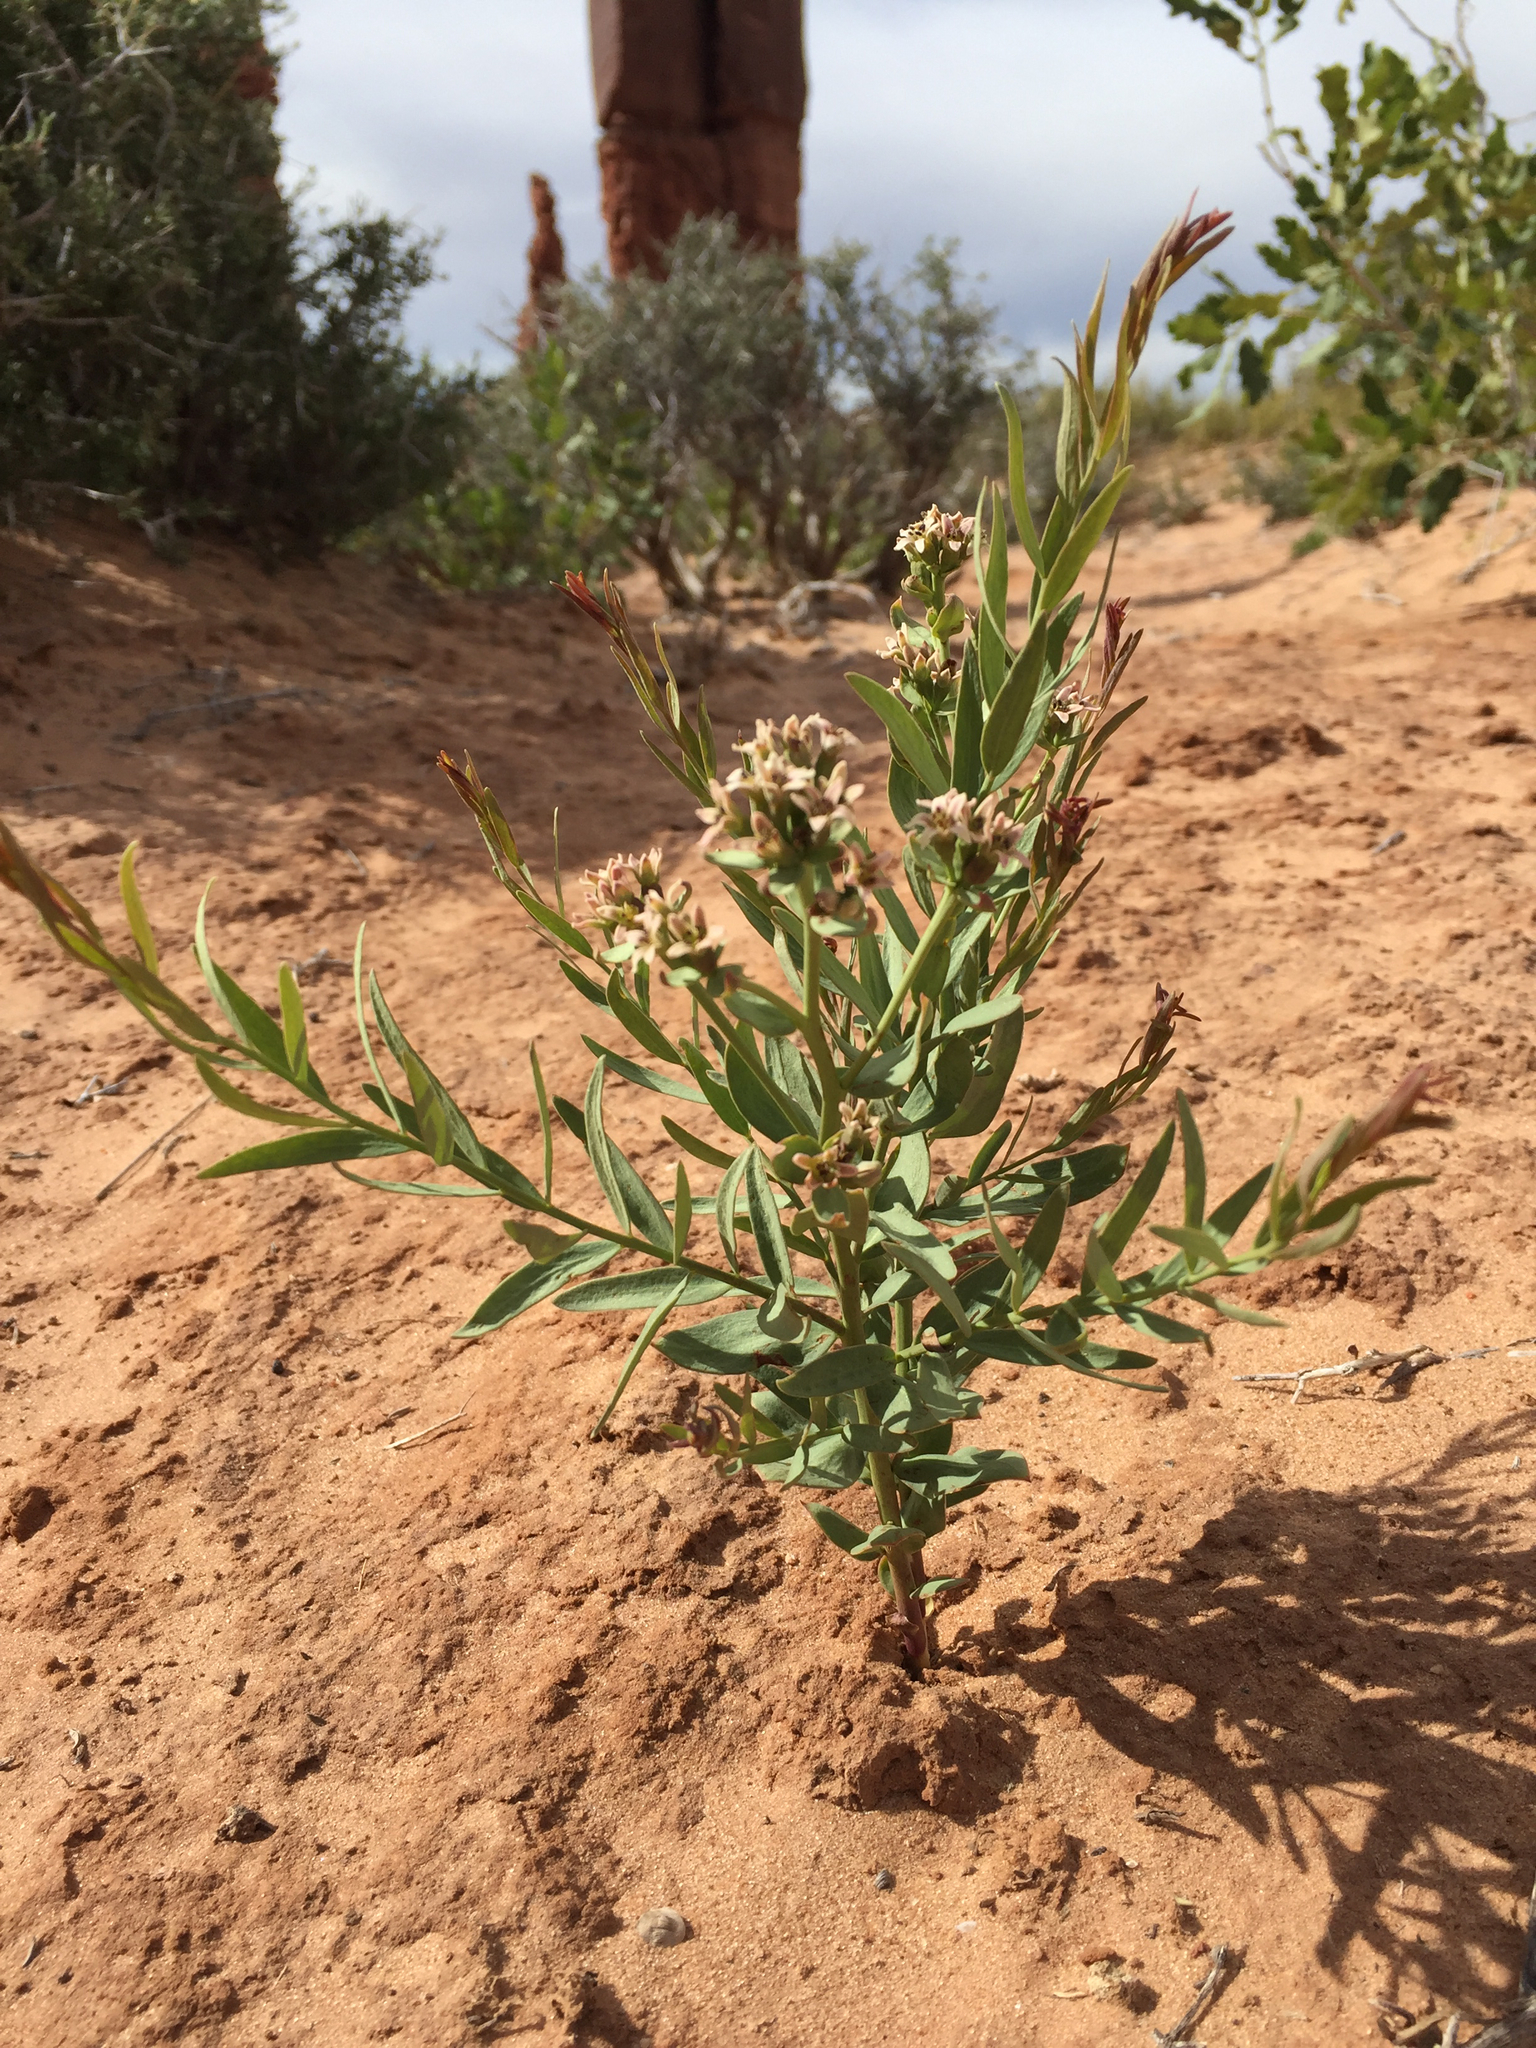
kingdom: Plantae
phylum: Tracheophyta
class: Magnoliopsida
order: Santalales
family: Comandraceae
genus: Comandra
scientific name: Comandra umbellata
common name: Bastard toadflax
